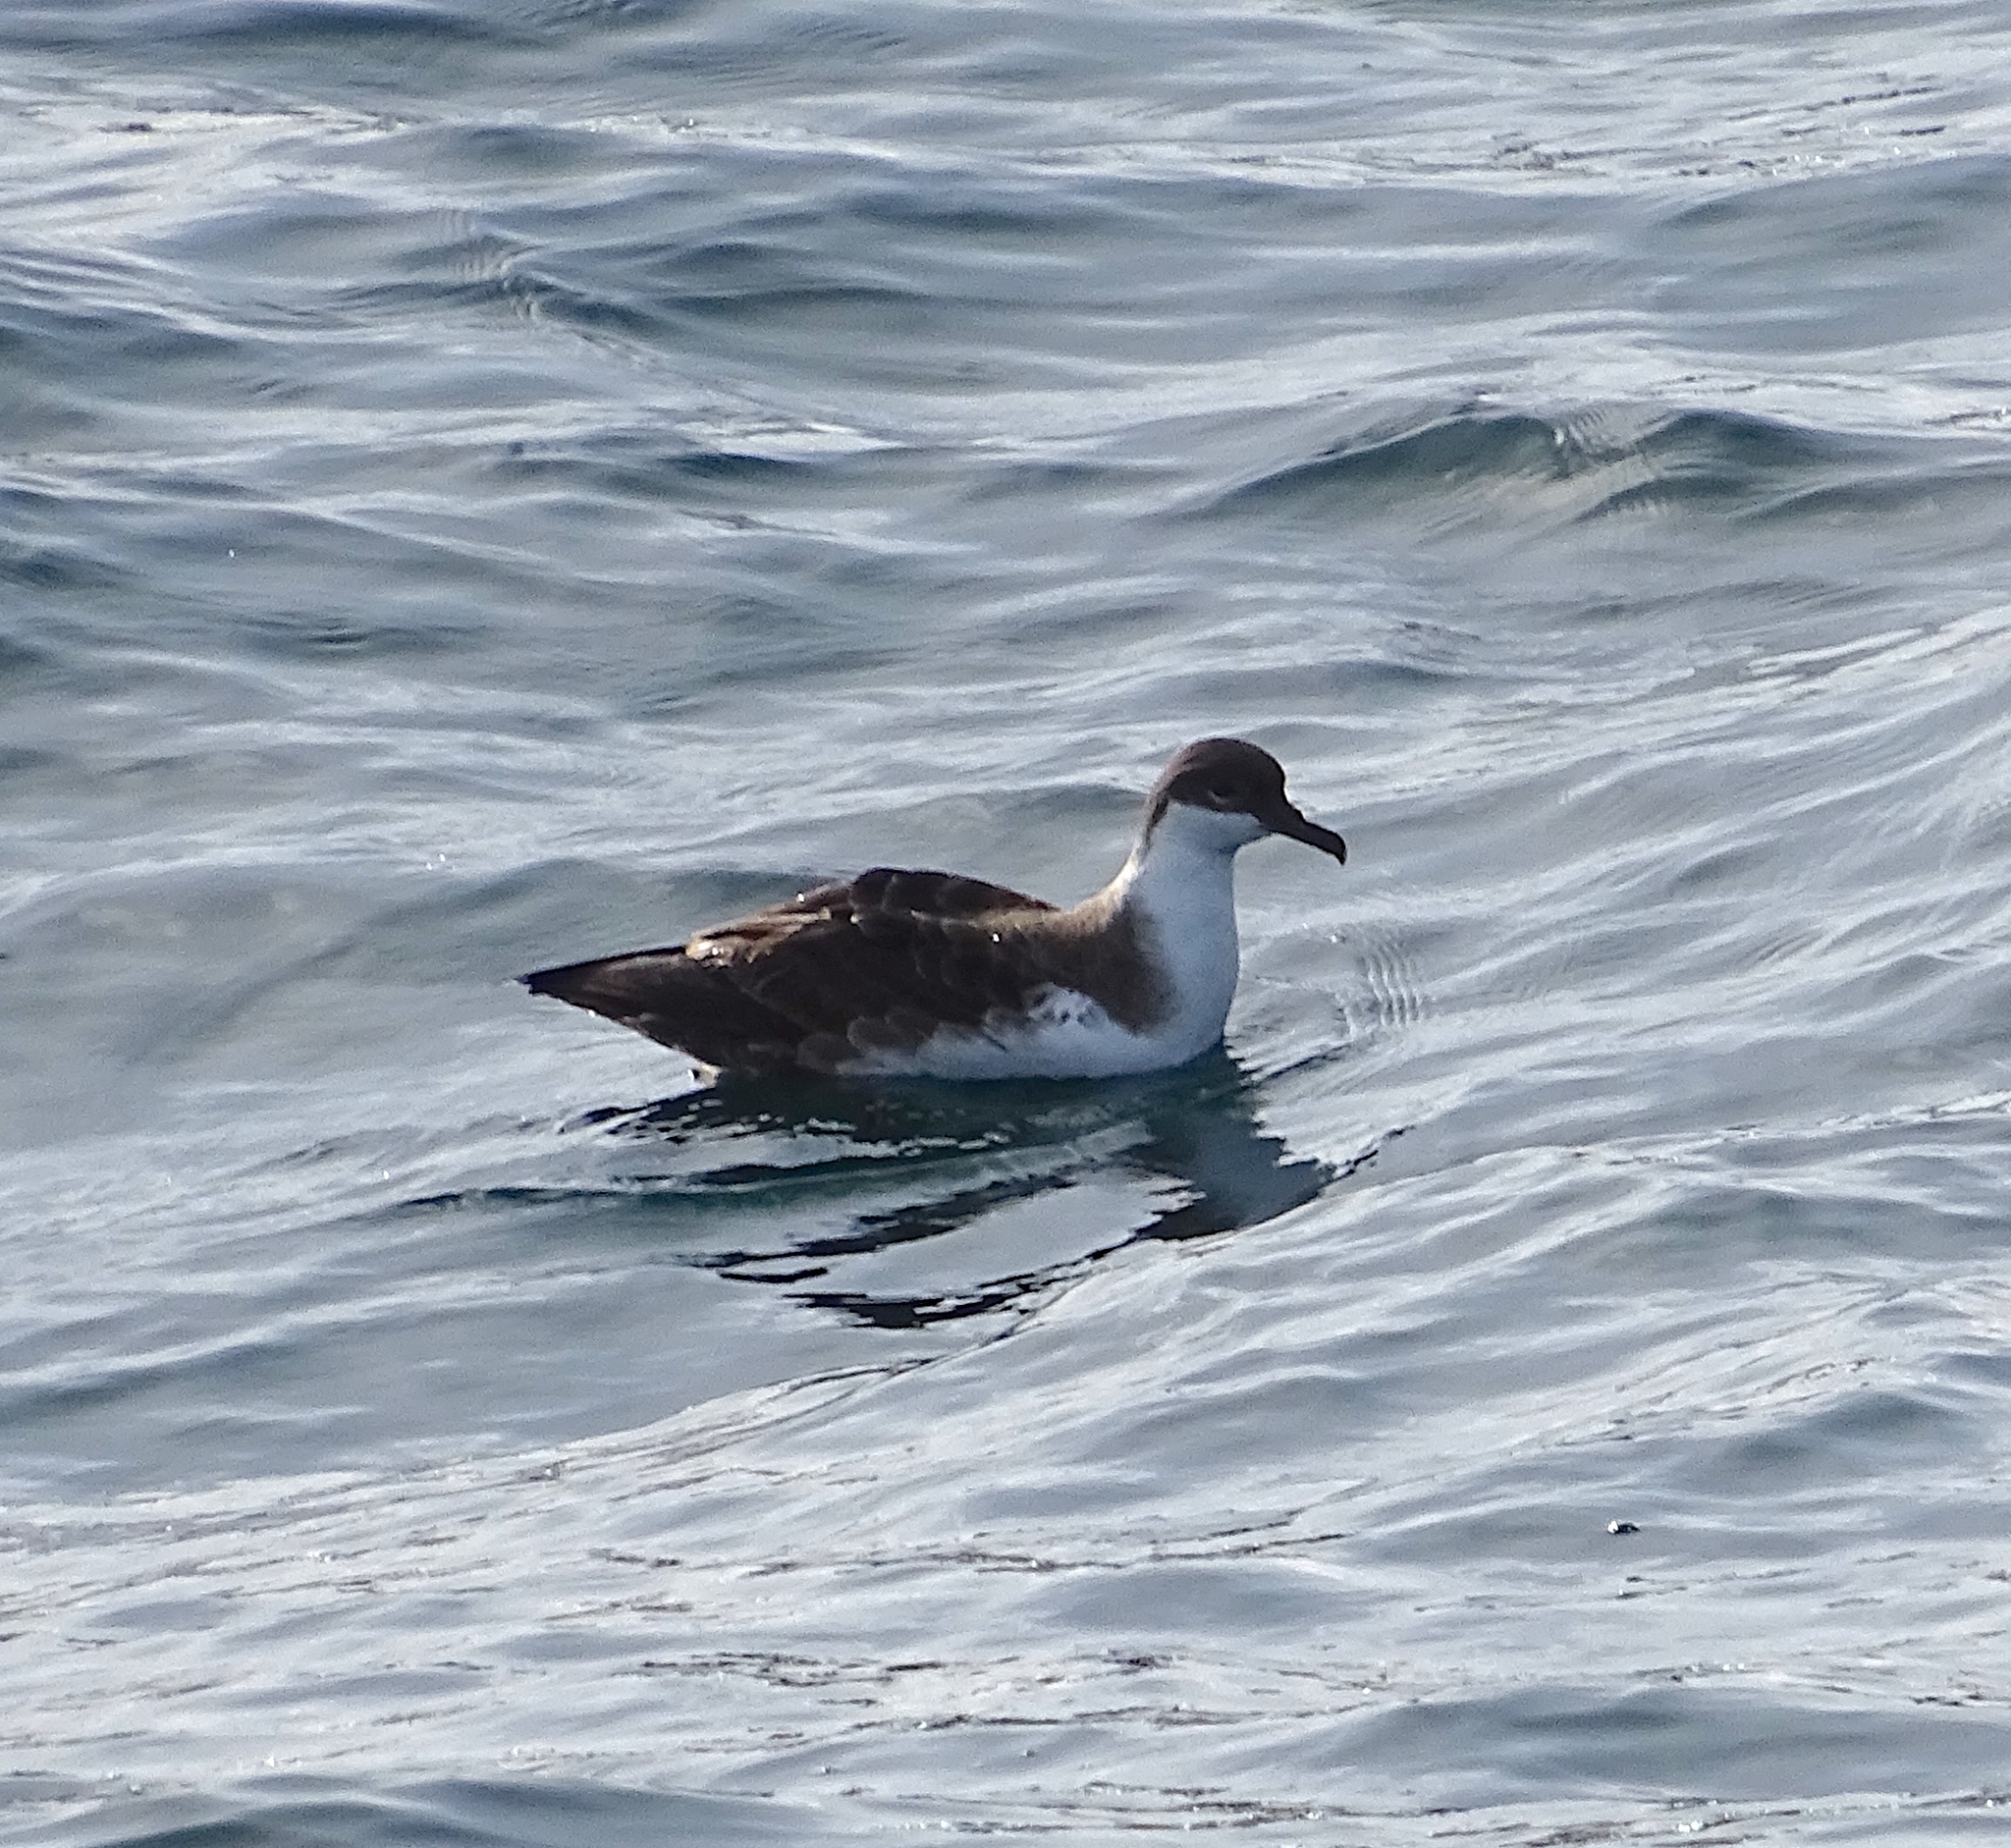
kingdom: Animalia
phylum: Chordata
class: Aves
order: Procellariiformes
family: Procellariidae
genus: Puffinus
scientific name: Puffinus gravis
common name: Great shearwater
